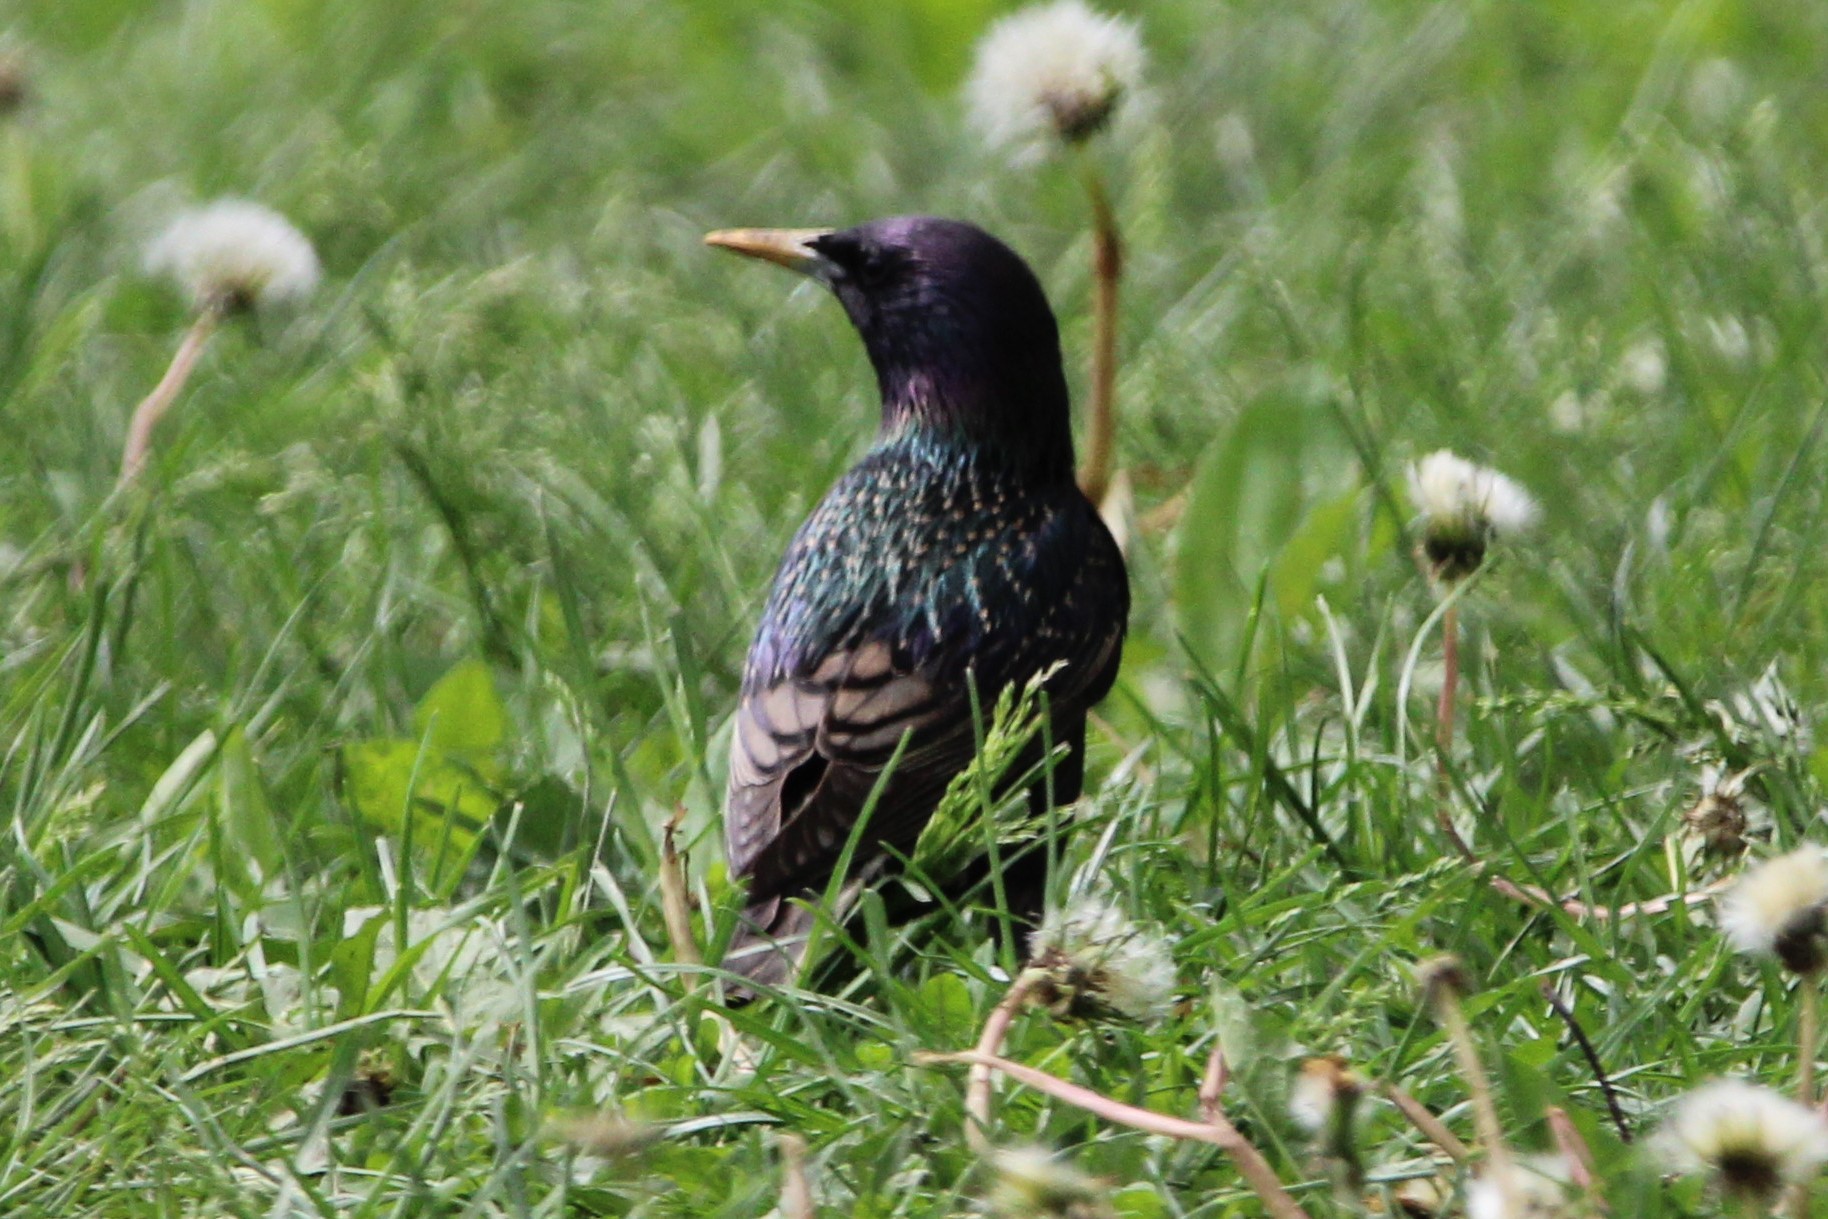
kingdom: Animalia
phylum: Chordata
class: Aves
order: Passeriformes
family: Sturnidae
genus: Sturnus
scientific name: Sturnus vulgaris
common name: Common starling
